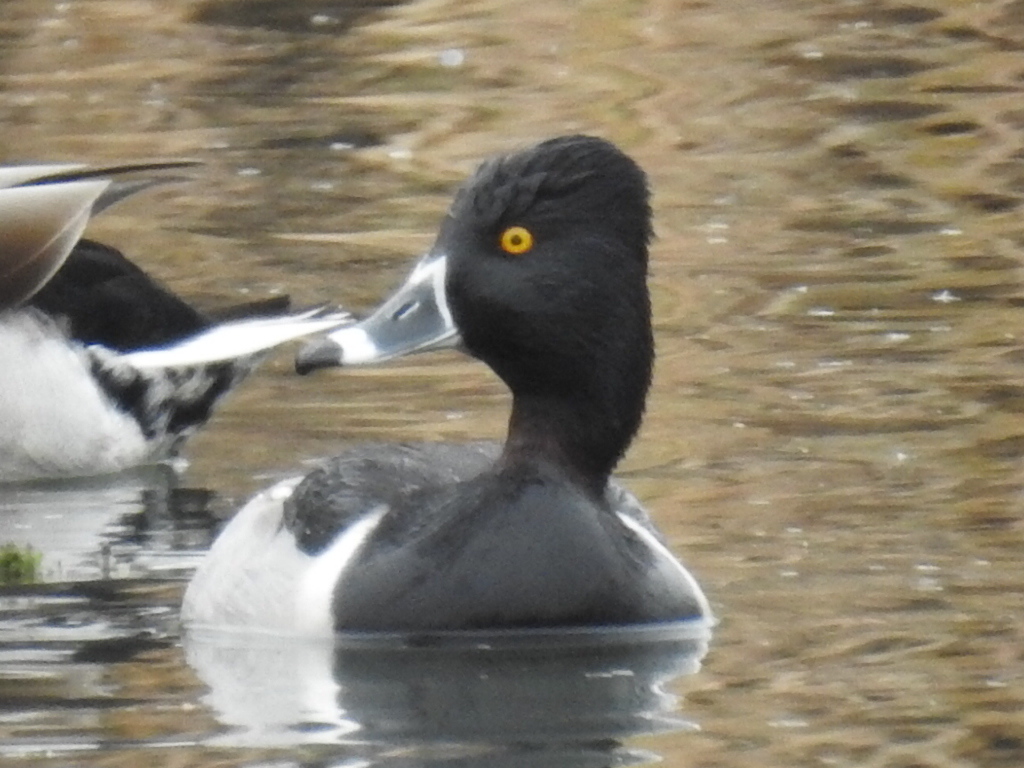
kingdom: Animalia
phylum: Chordata
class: Aves
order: Anseriformes
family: Anatidae
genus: Aythya
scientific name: Aythya collaris
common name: Ring-necked duck
